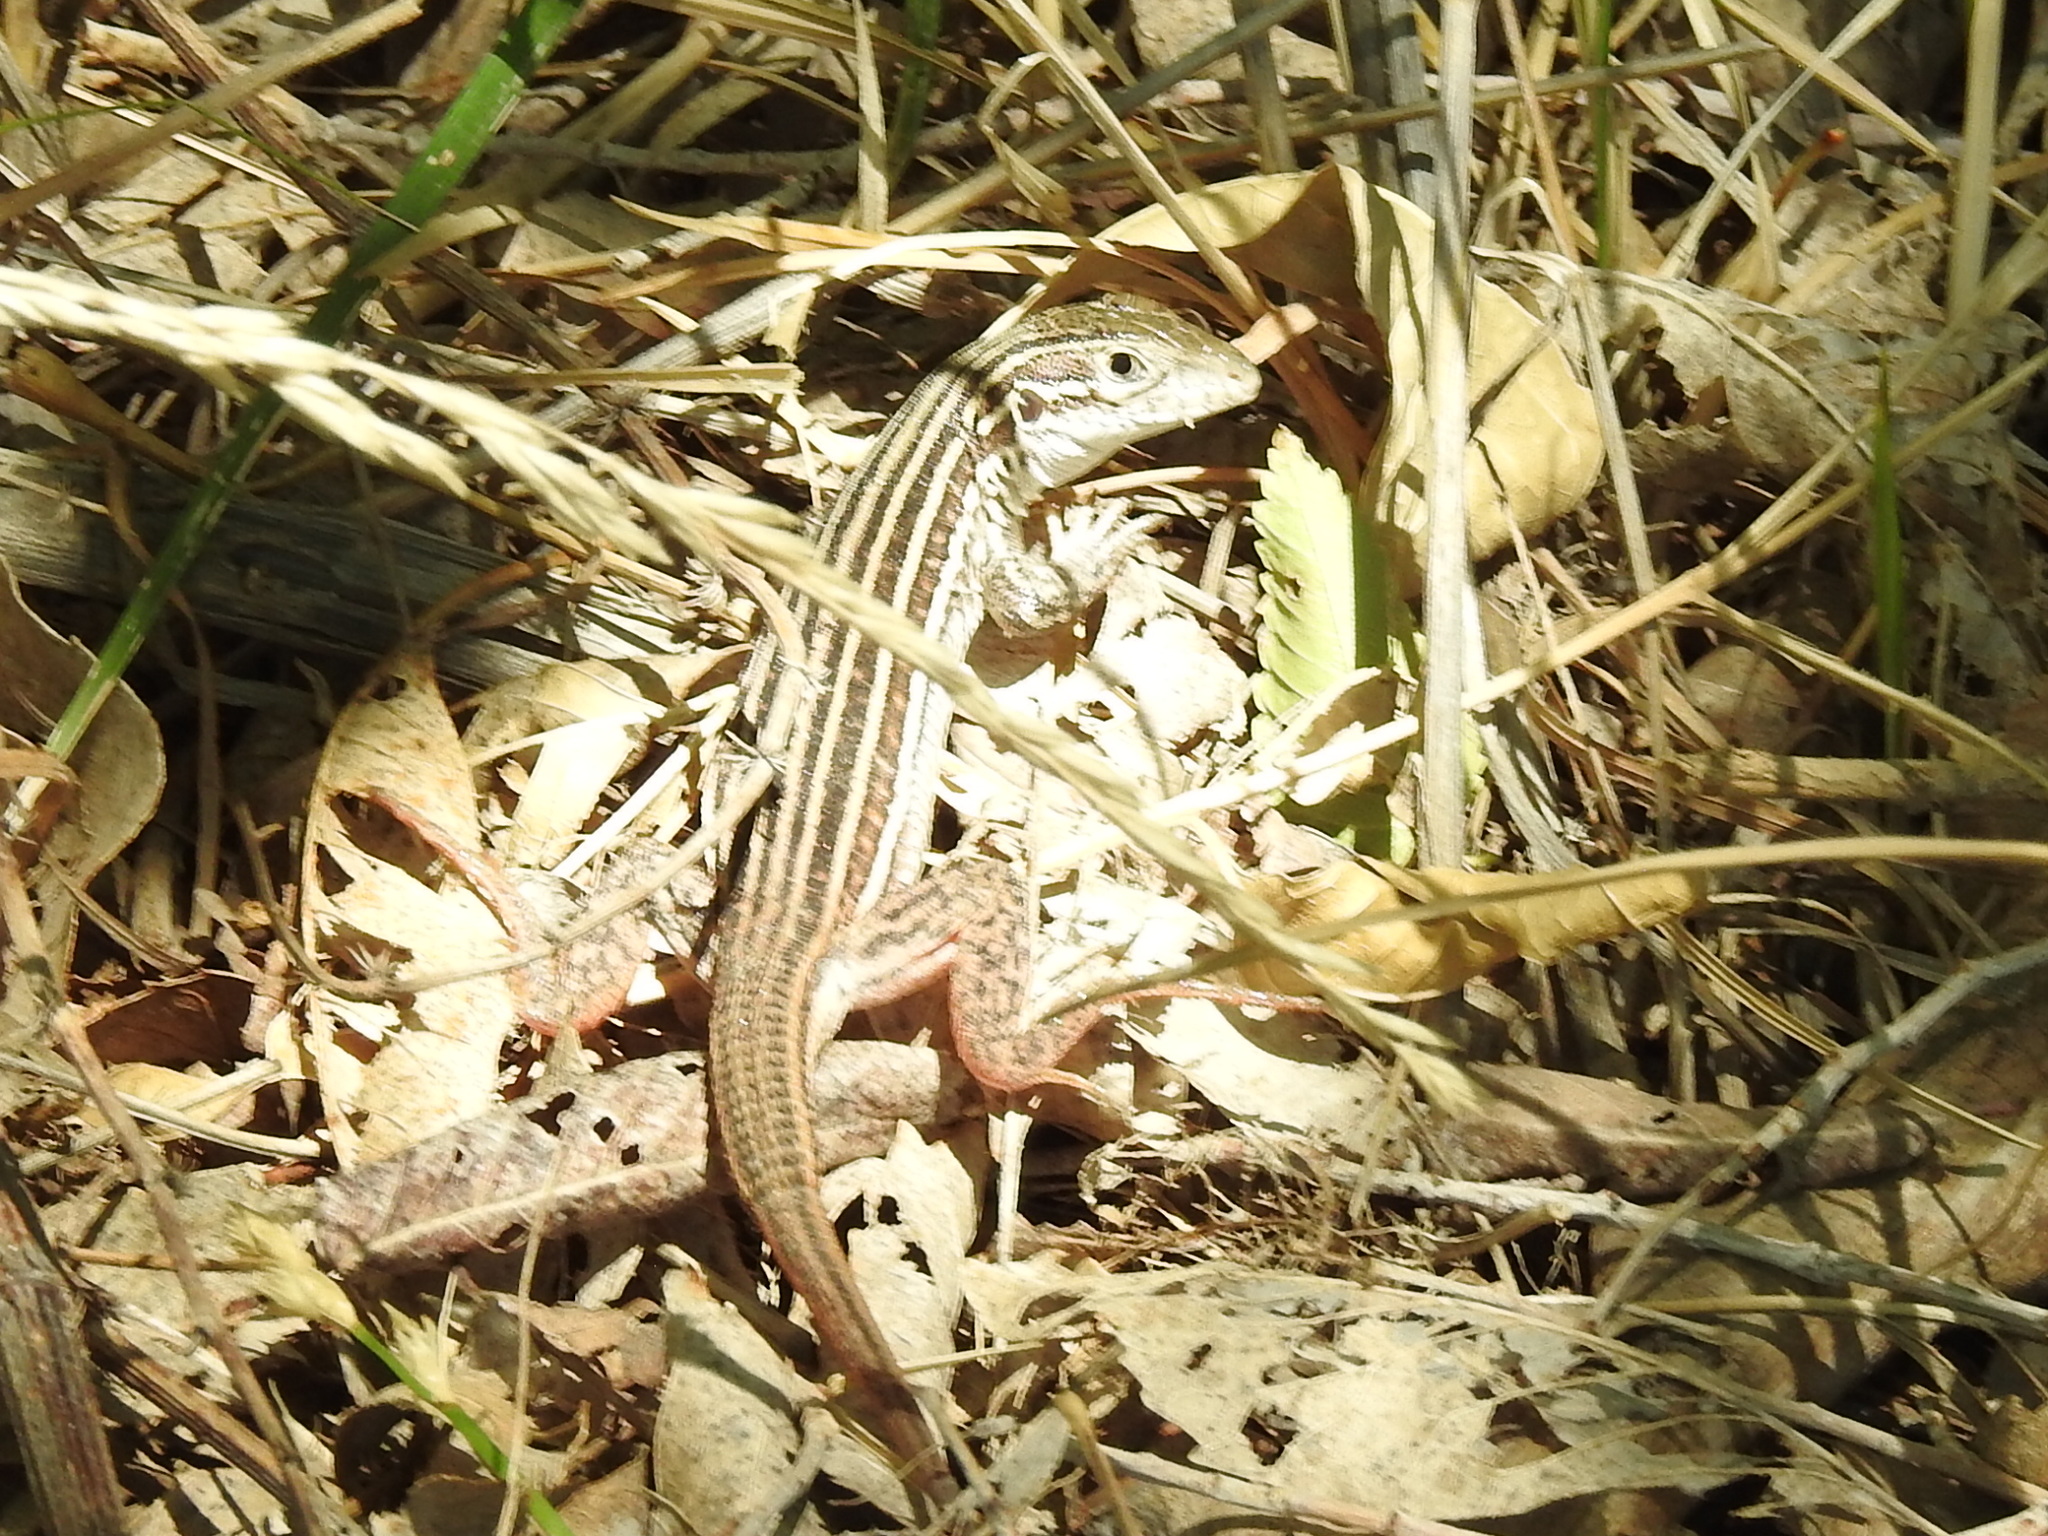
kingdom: Animalia
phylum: Chordata
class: Squamata
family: Teiidae
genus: Aspidoscelis
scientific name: Aspidoscelis gularis
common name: Eastern spotted whiptail
